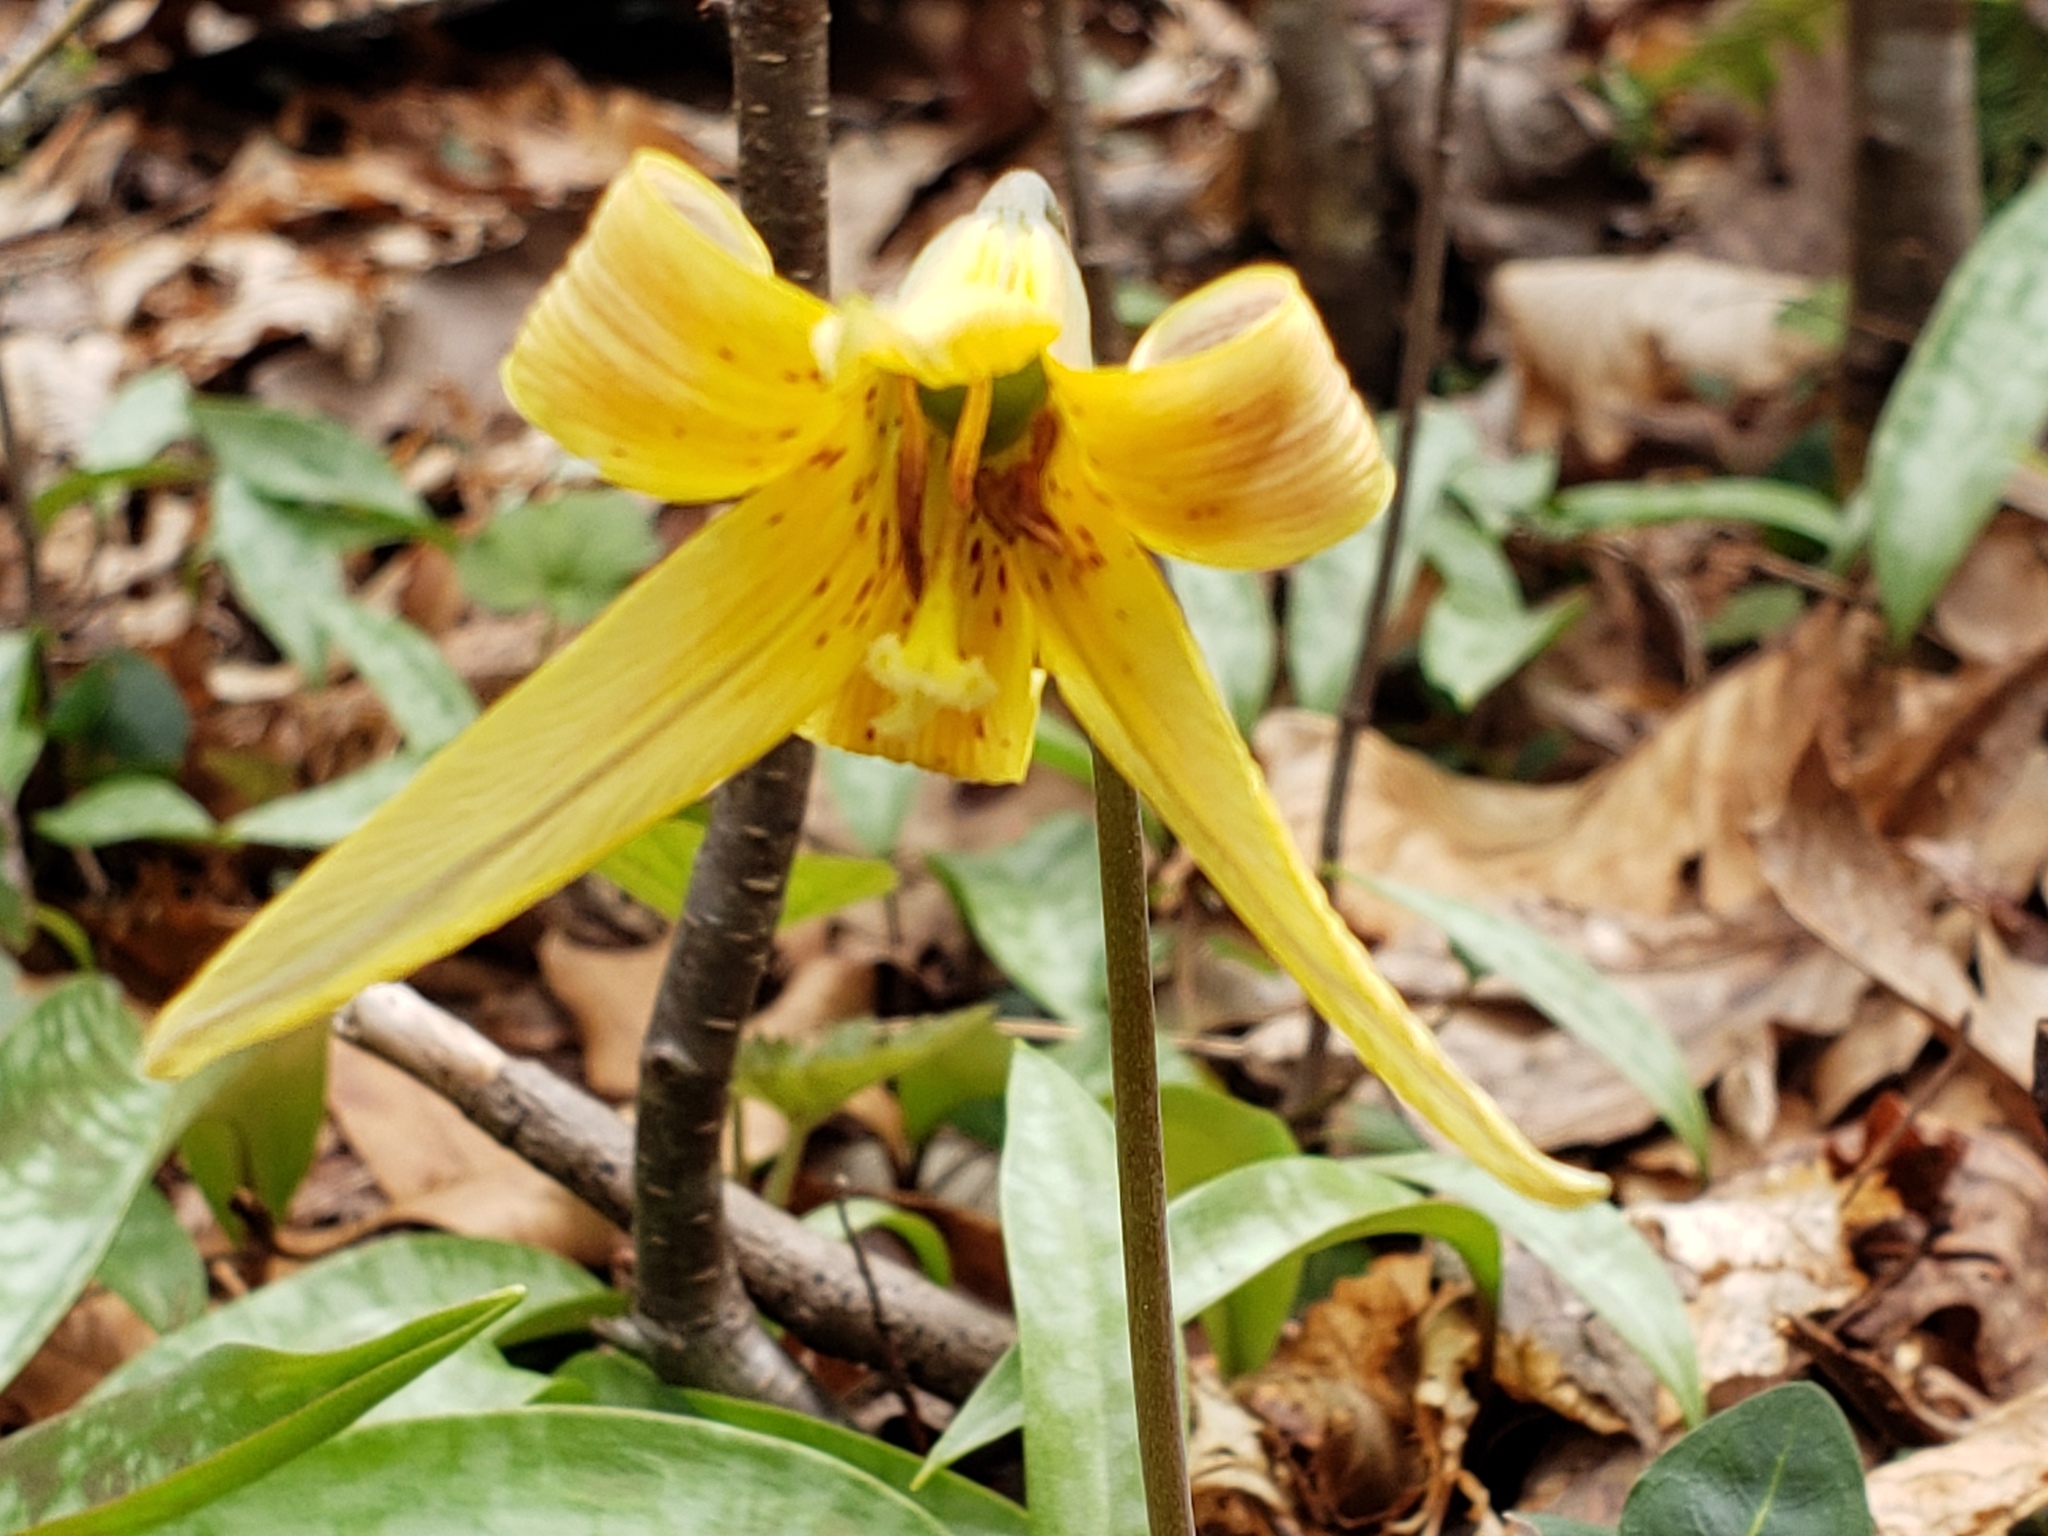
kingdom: Plantae
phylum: Tracheophyta
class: Liliopsida
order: Liliales
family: Liliaceae
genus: Erythronium
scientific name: Erythronium americanum
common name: Yellow adder's-tongue
